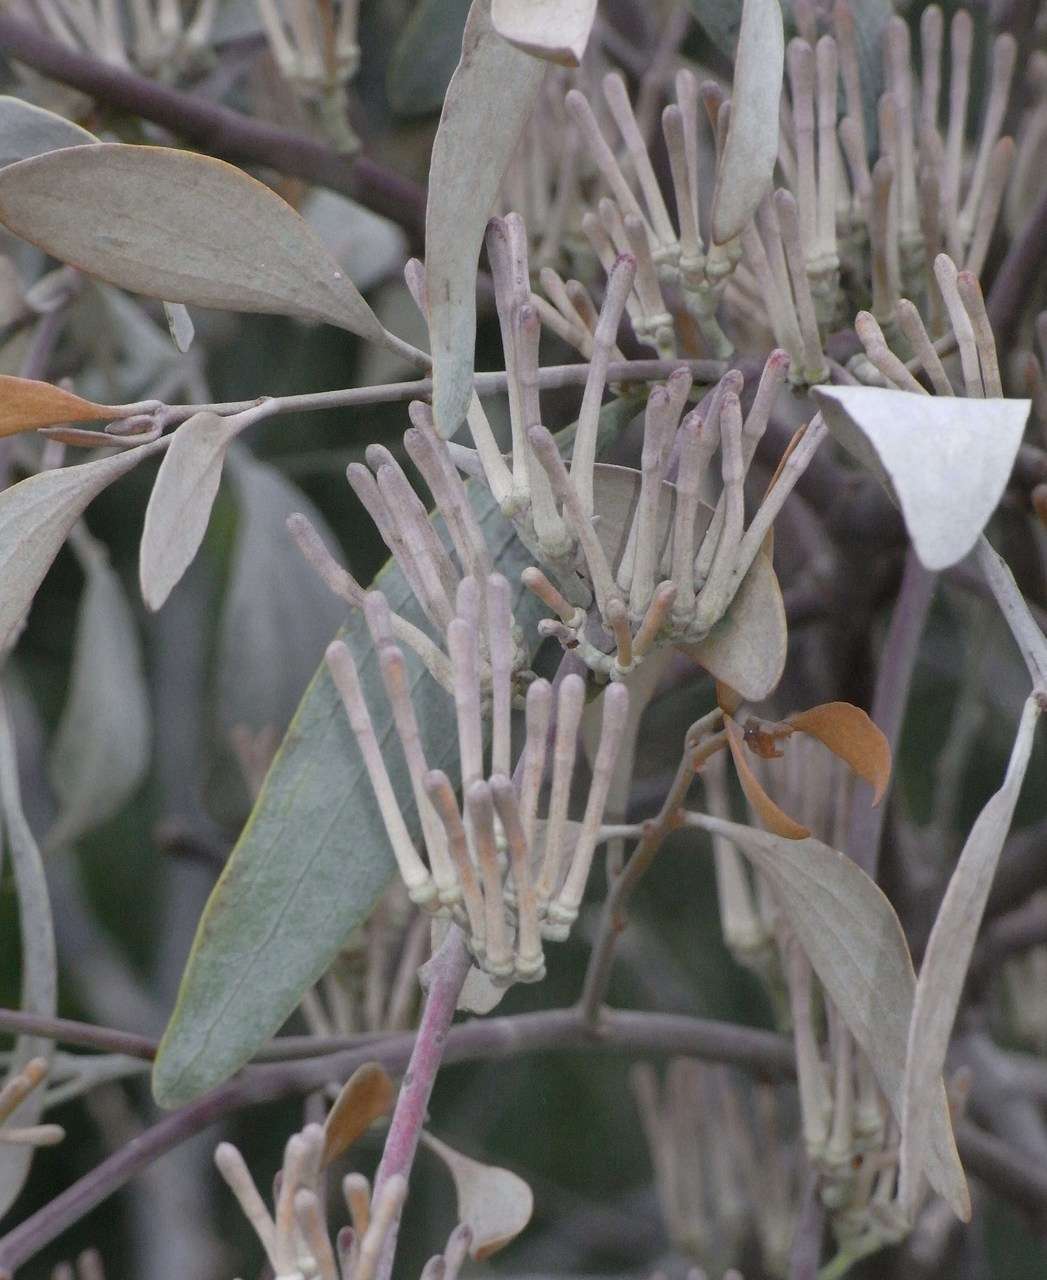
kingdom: Plantae
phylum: Tracheophyta
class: Magnoliopsida
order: Santalales
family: Loranthaceae
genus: Amyema
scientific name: Amyema quandang
